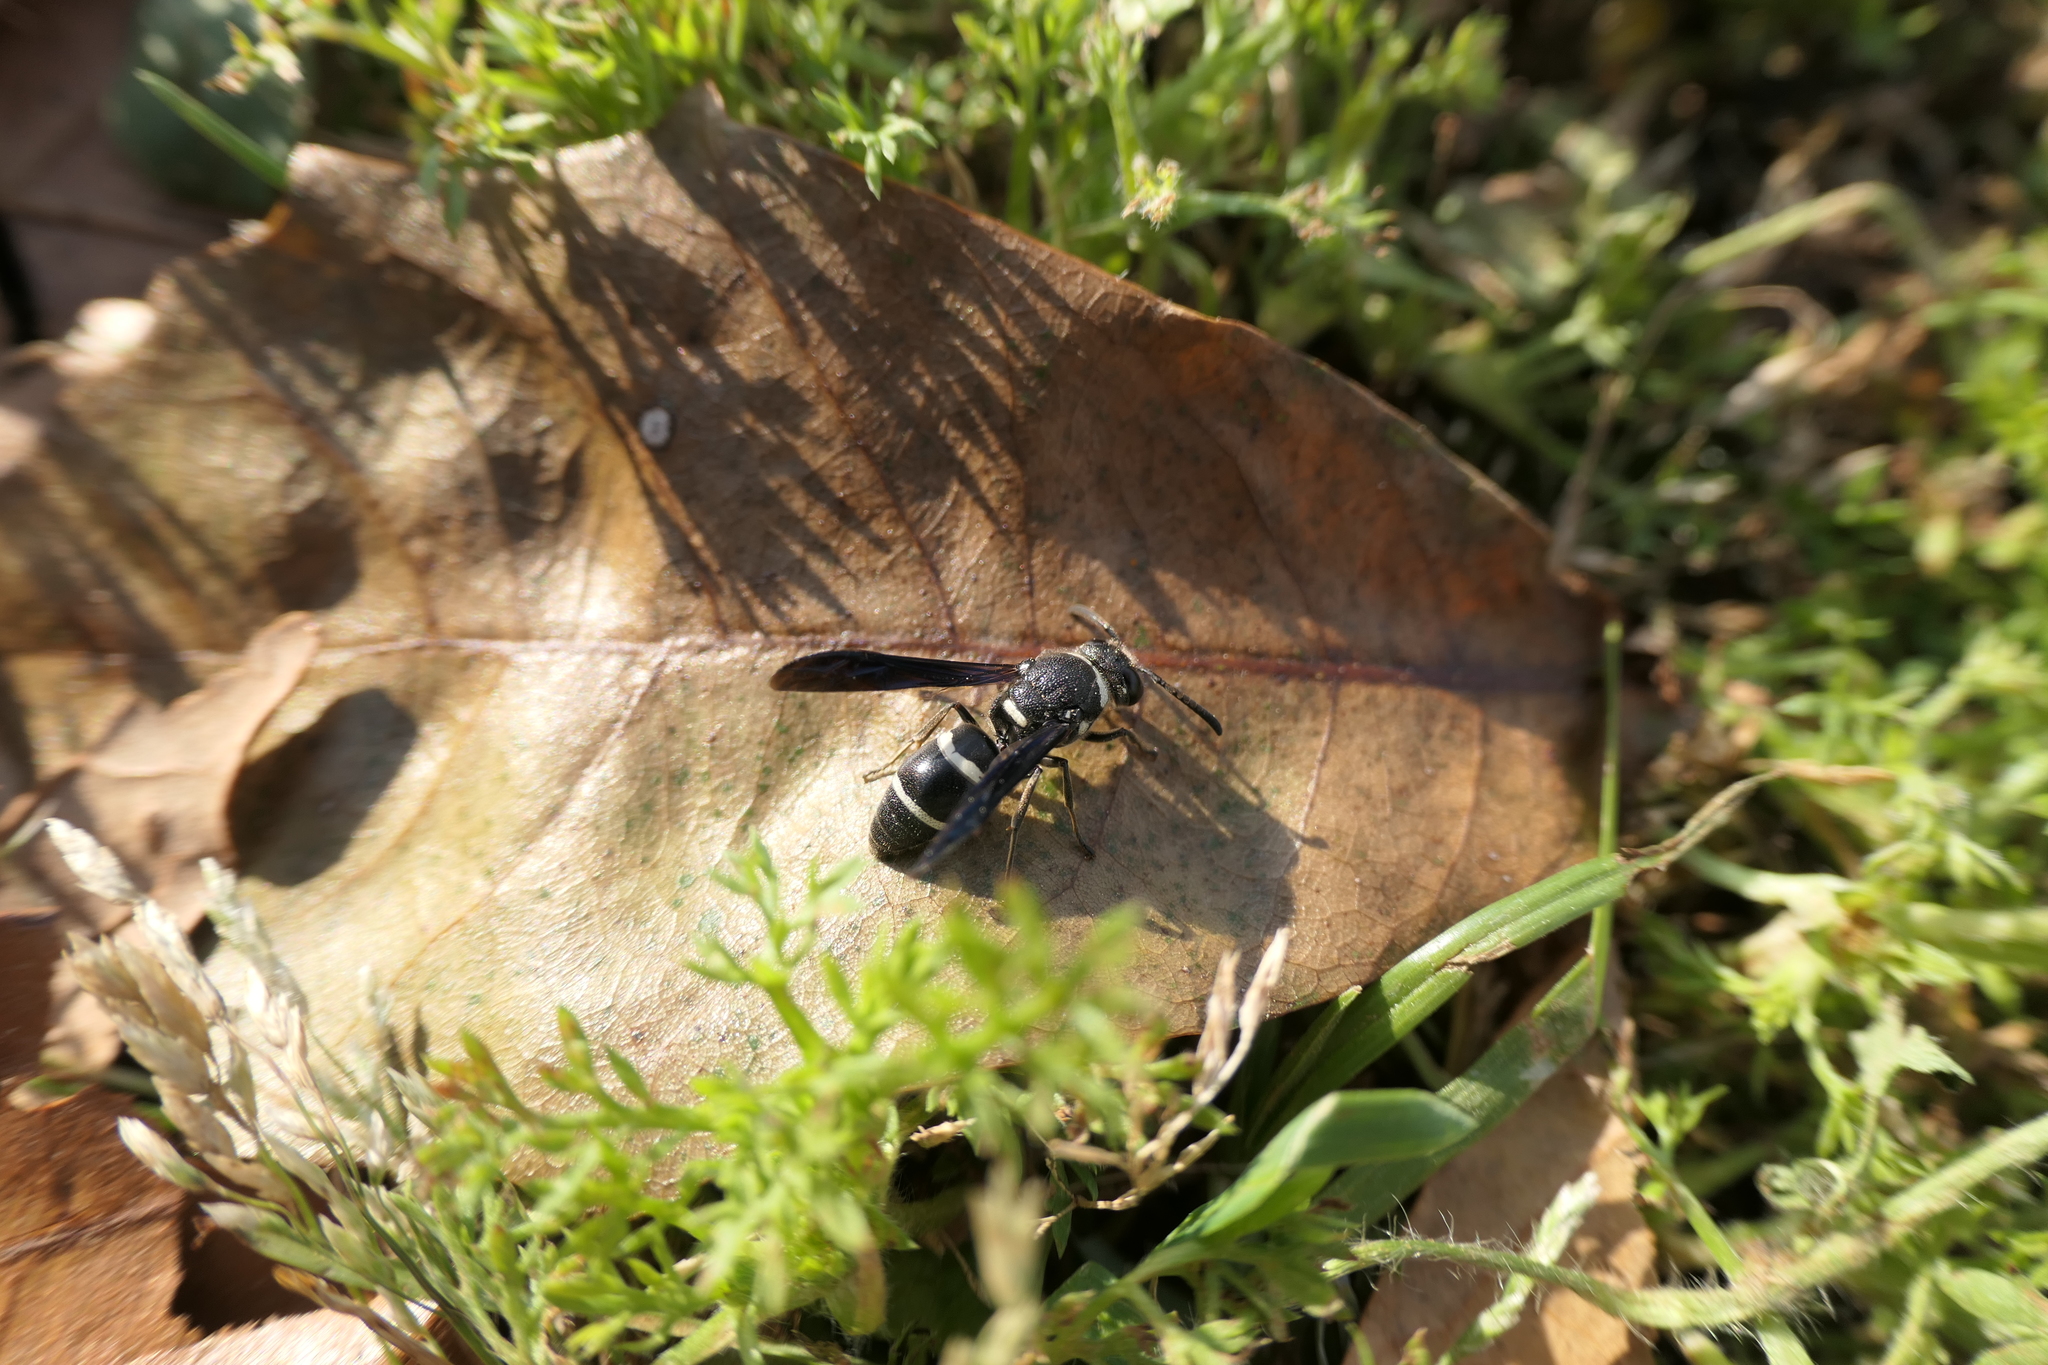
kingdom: Animalia
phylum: Arthropoda
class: Insecta
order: Hymenoptera
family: Eumenidae
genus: Euodynerus
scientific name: Euodynerus megaera
